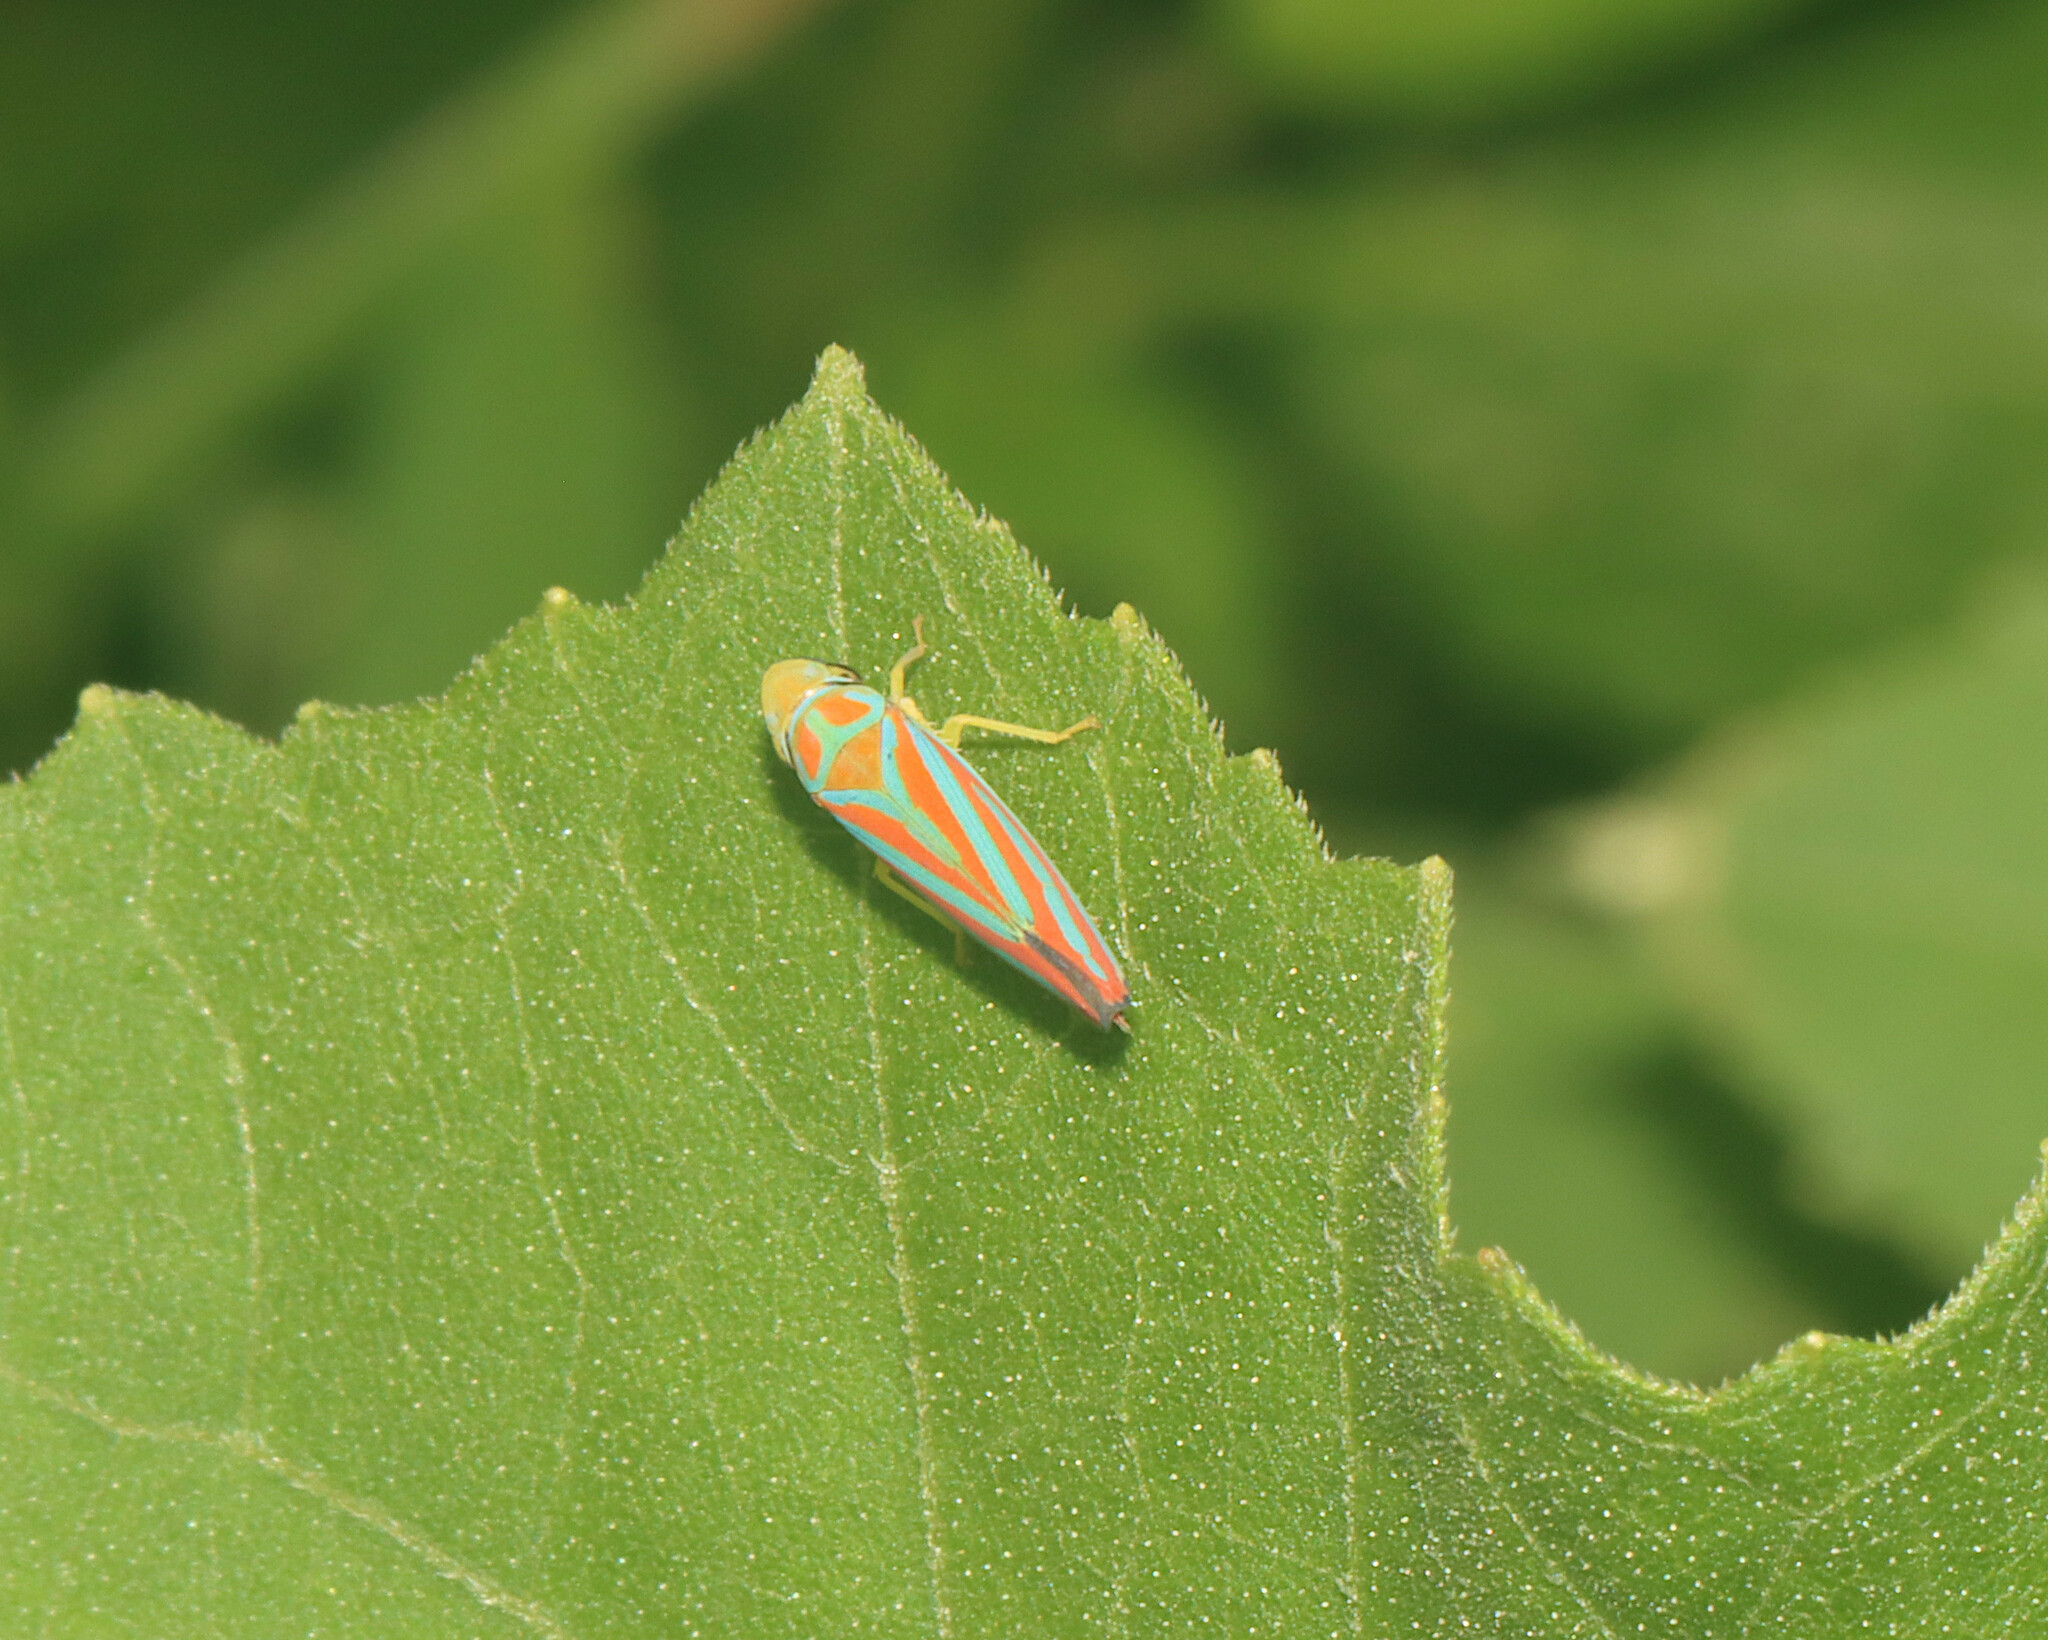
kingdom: Animalia
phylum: Arthropoda
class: Insecta
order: Hemiptera
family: Cicadellidae
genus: Graphocephala
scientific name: Graphocephala coccinea
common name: Candy-striped leafhopper
